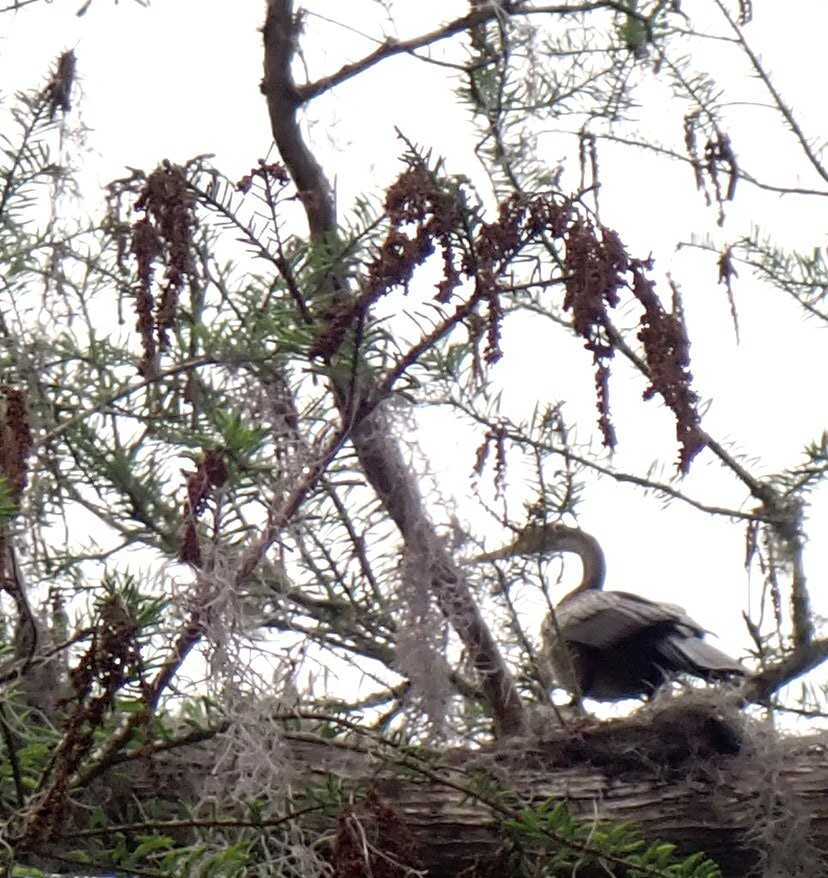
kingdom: Animalia
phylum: Chordata
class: Aves
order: Suliformes
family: Anhingidae
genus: Anhinga
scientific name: Anhinga anhinga
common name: Anhinga
